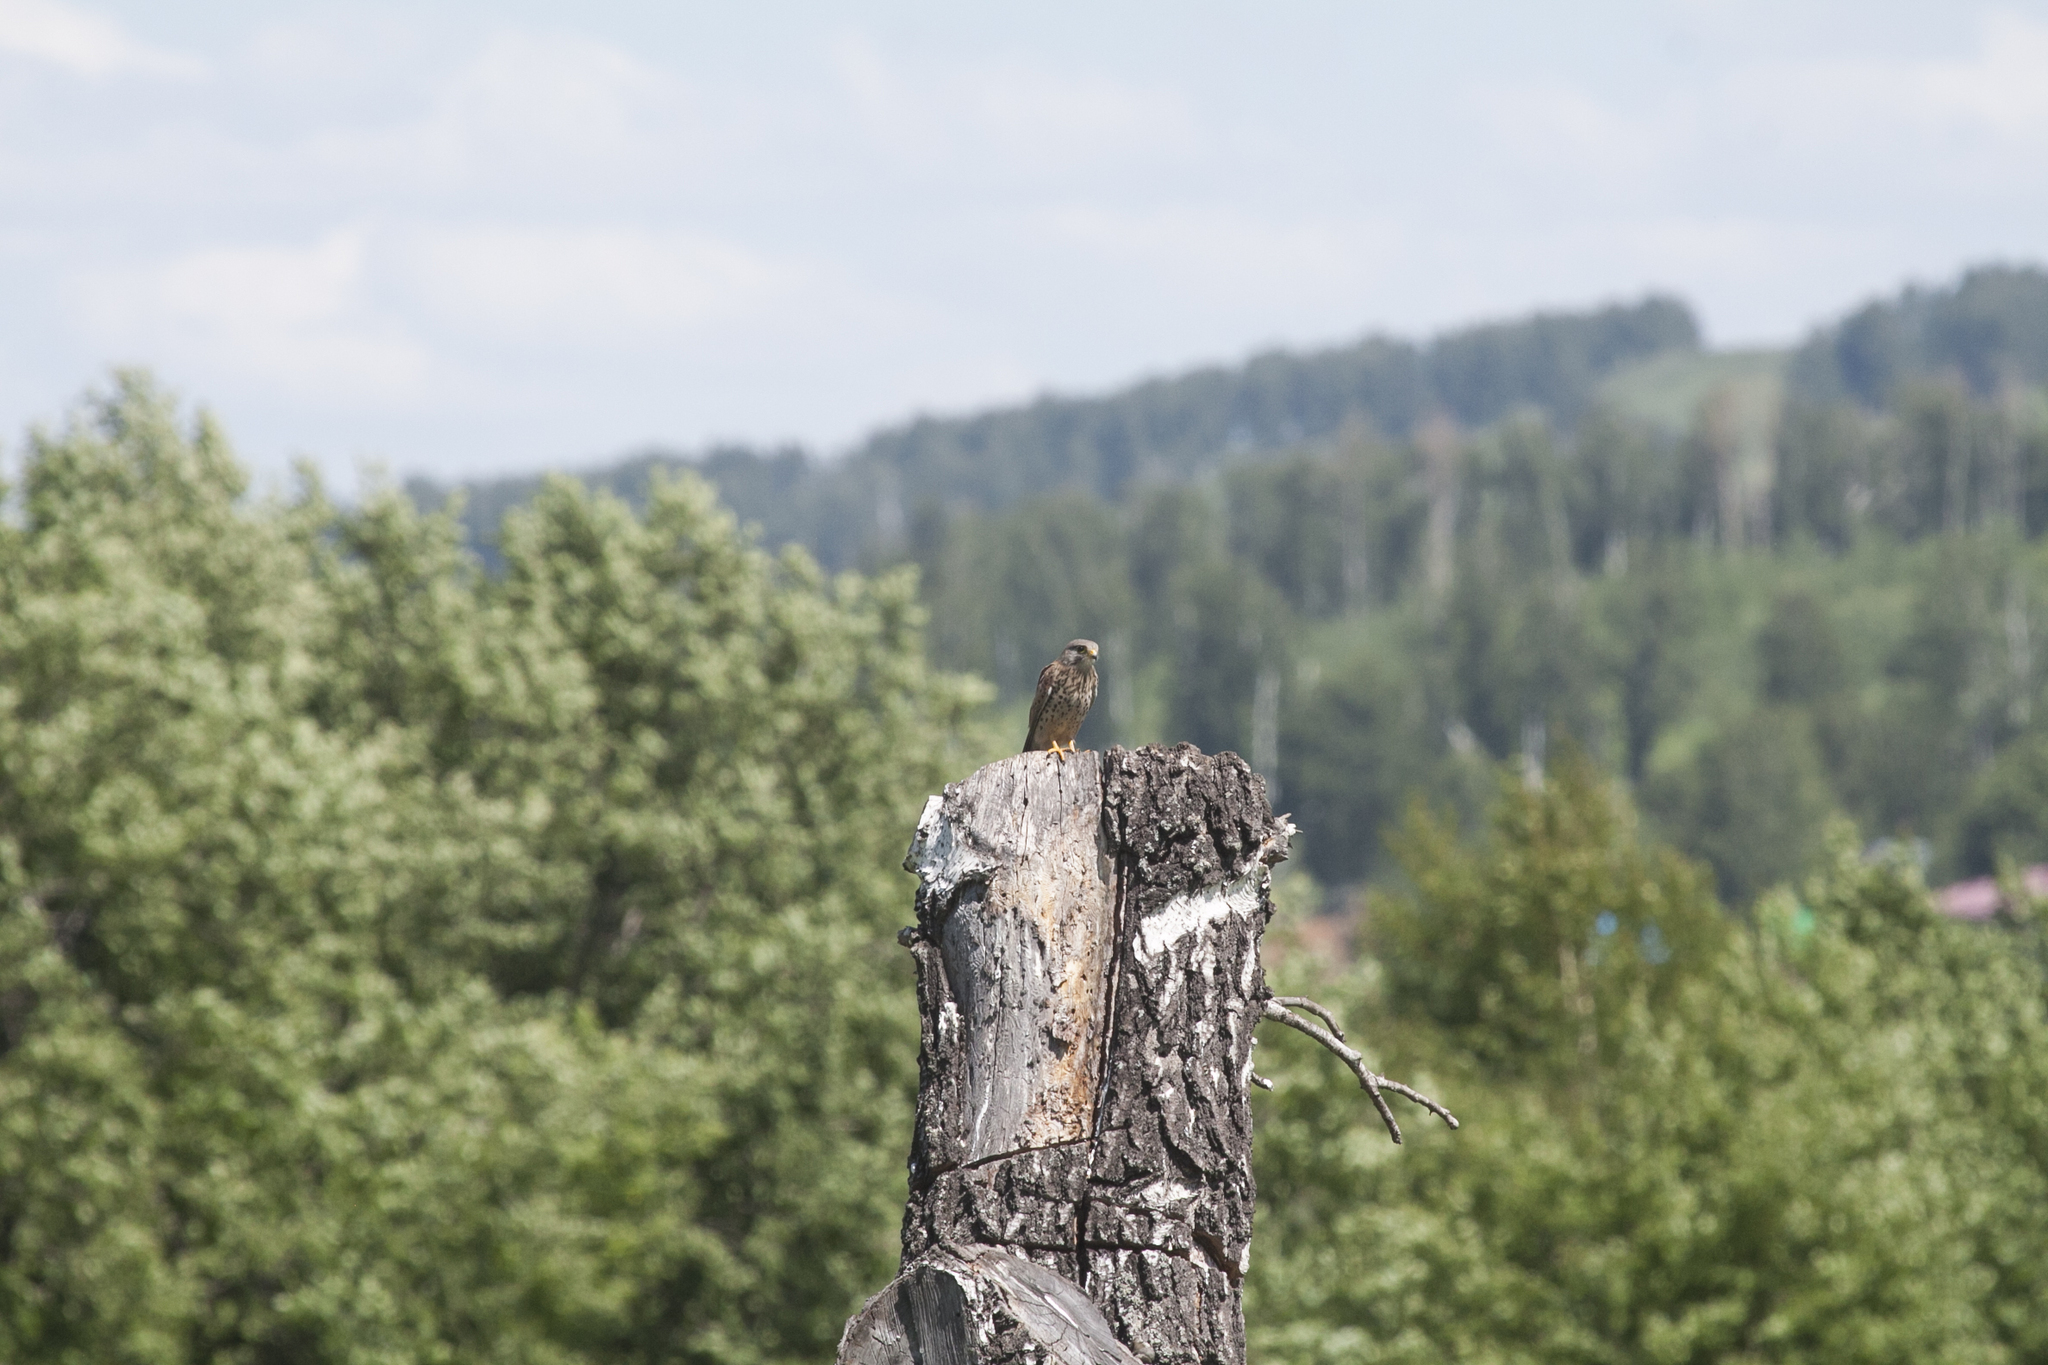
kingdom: Animalia
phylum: Chordata
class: Aves
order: Falconiformes
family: Falconidae
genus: Falco
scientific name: Falco tinnunculus
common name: Common kestrel
